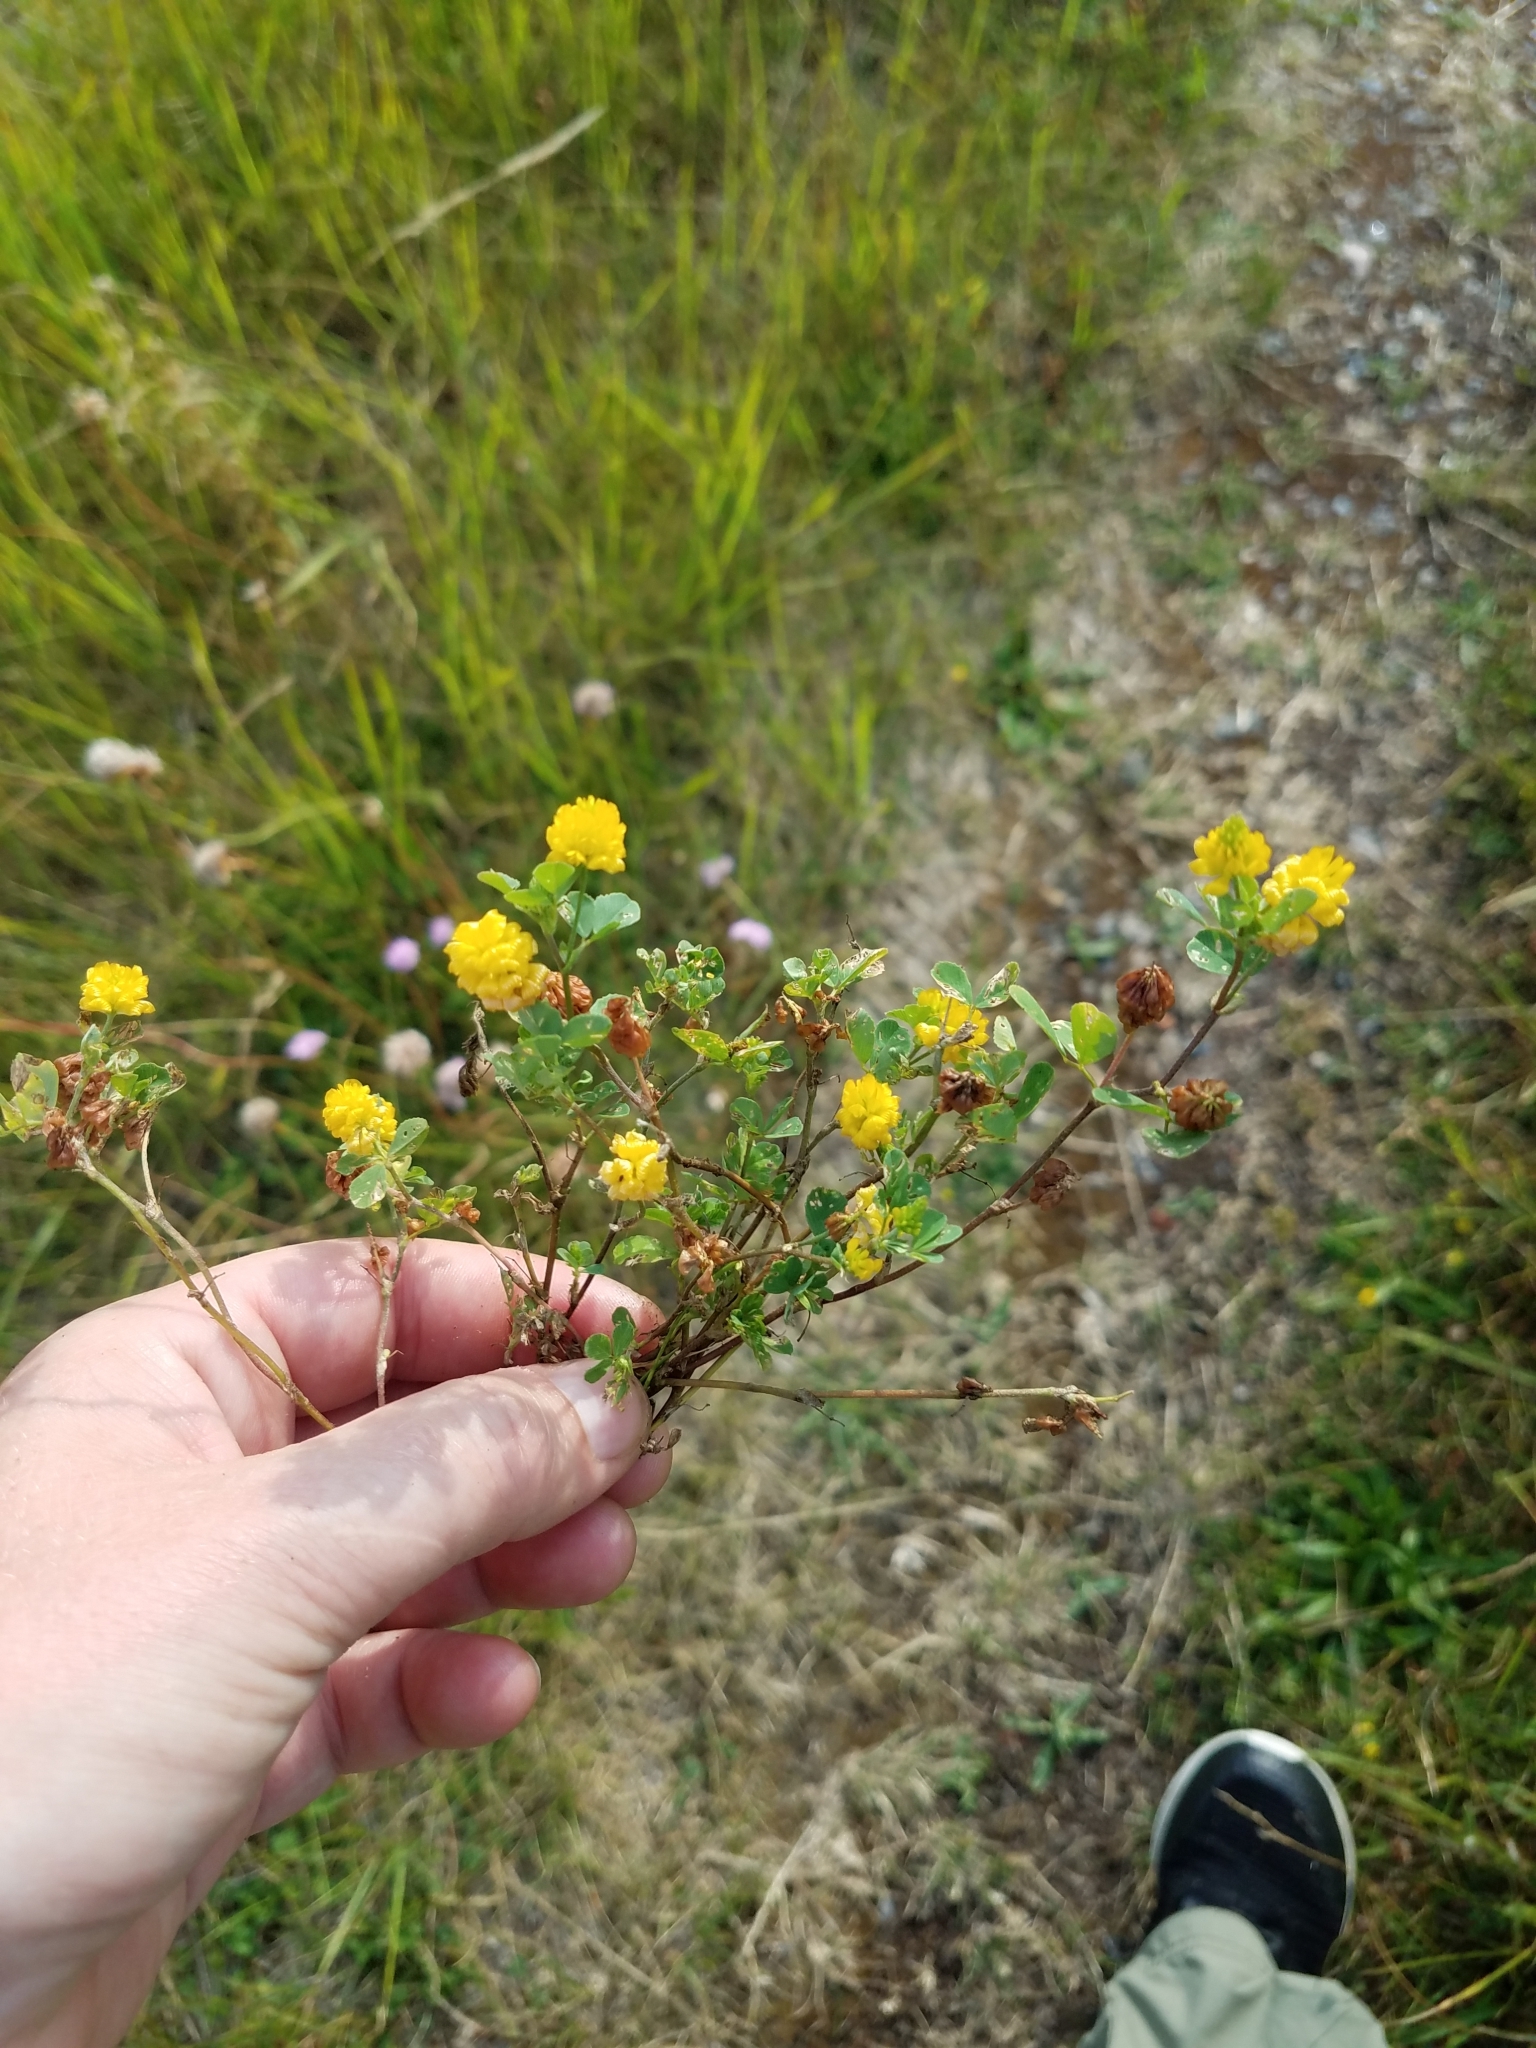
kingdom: Plantae
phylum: Tracheophyta
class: Magnoliopsida
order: Fabales
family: Fabaceae
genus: Trifolium
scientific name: Trifolium campestre
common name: Field clover
